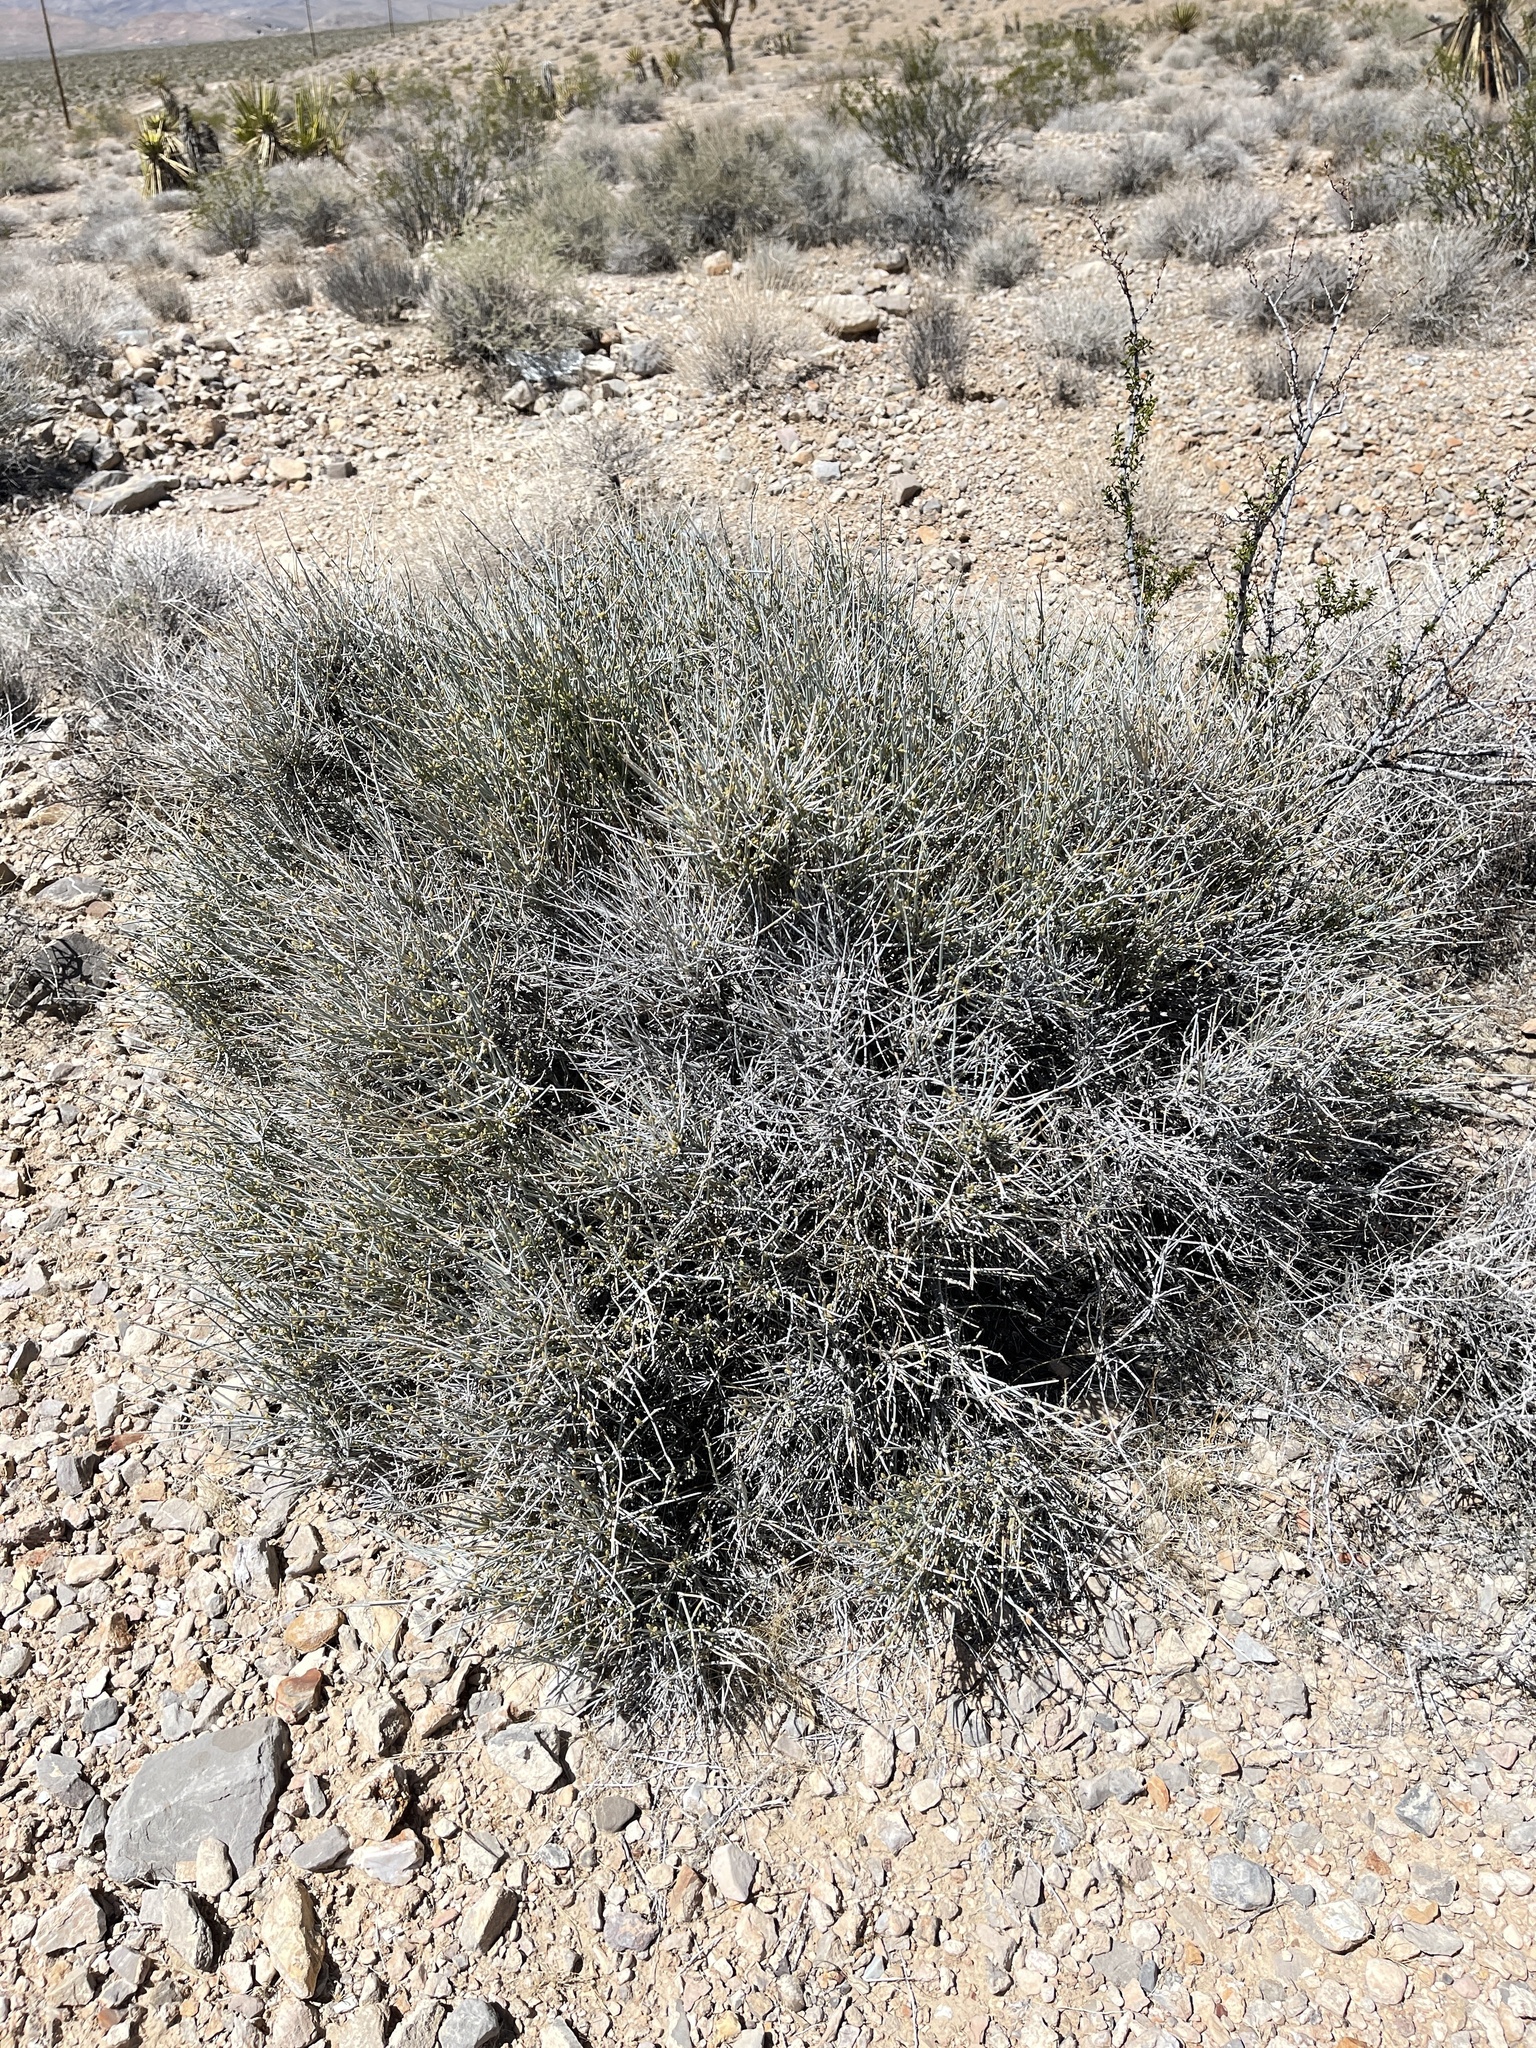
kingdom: Plantae
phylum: Tracheophyta
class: Gnetopsida
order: Ephedrales
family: Ephedraceae
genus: Ephedra
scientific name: Ephedra nevadensis
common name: Gray ephedra
